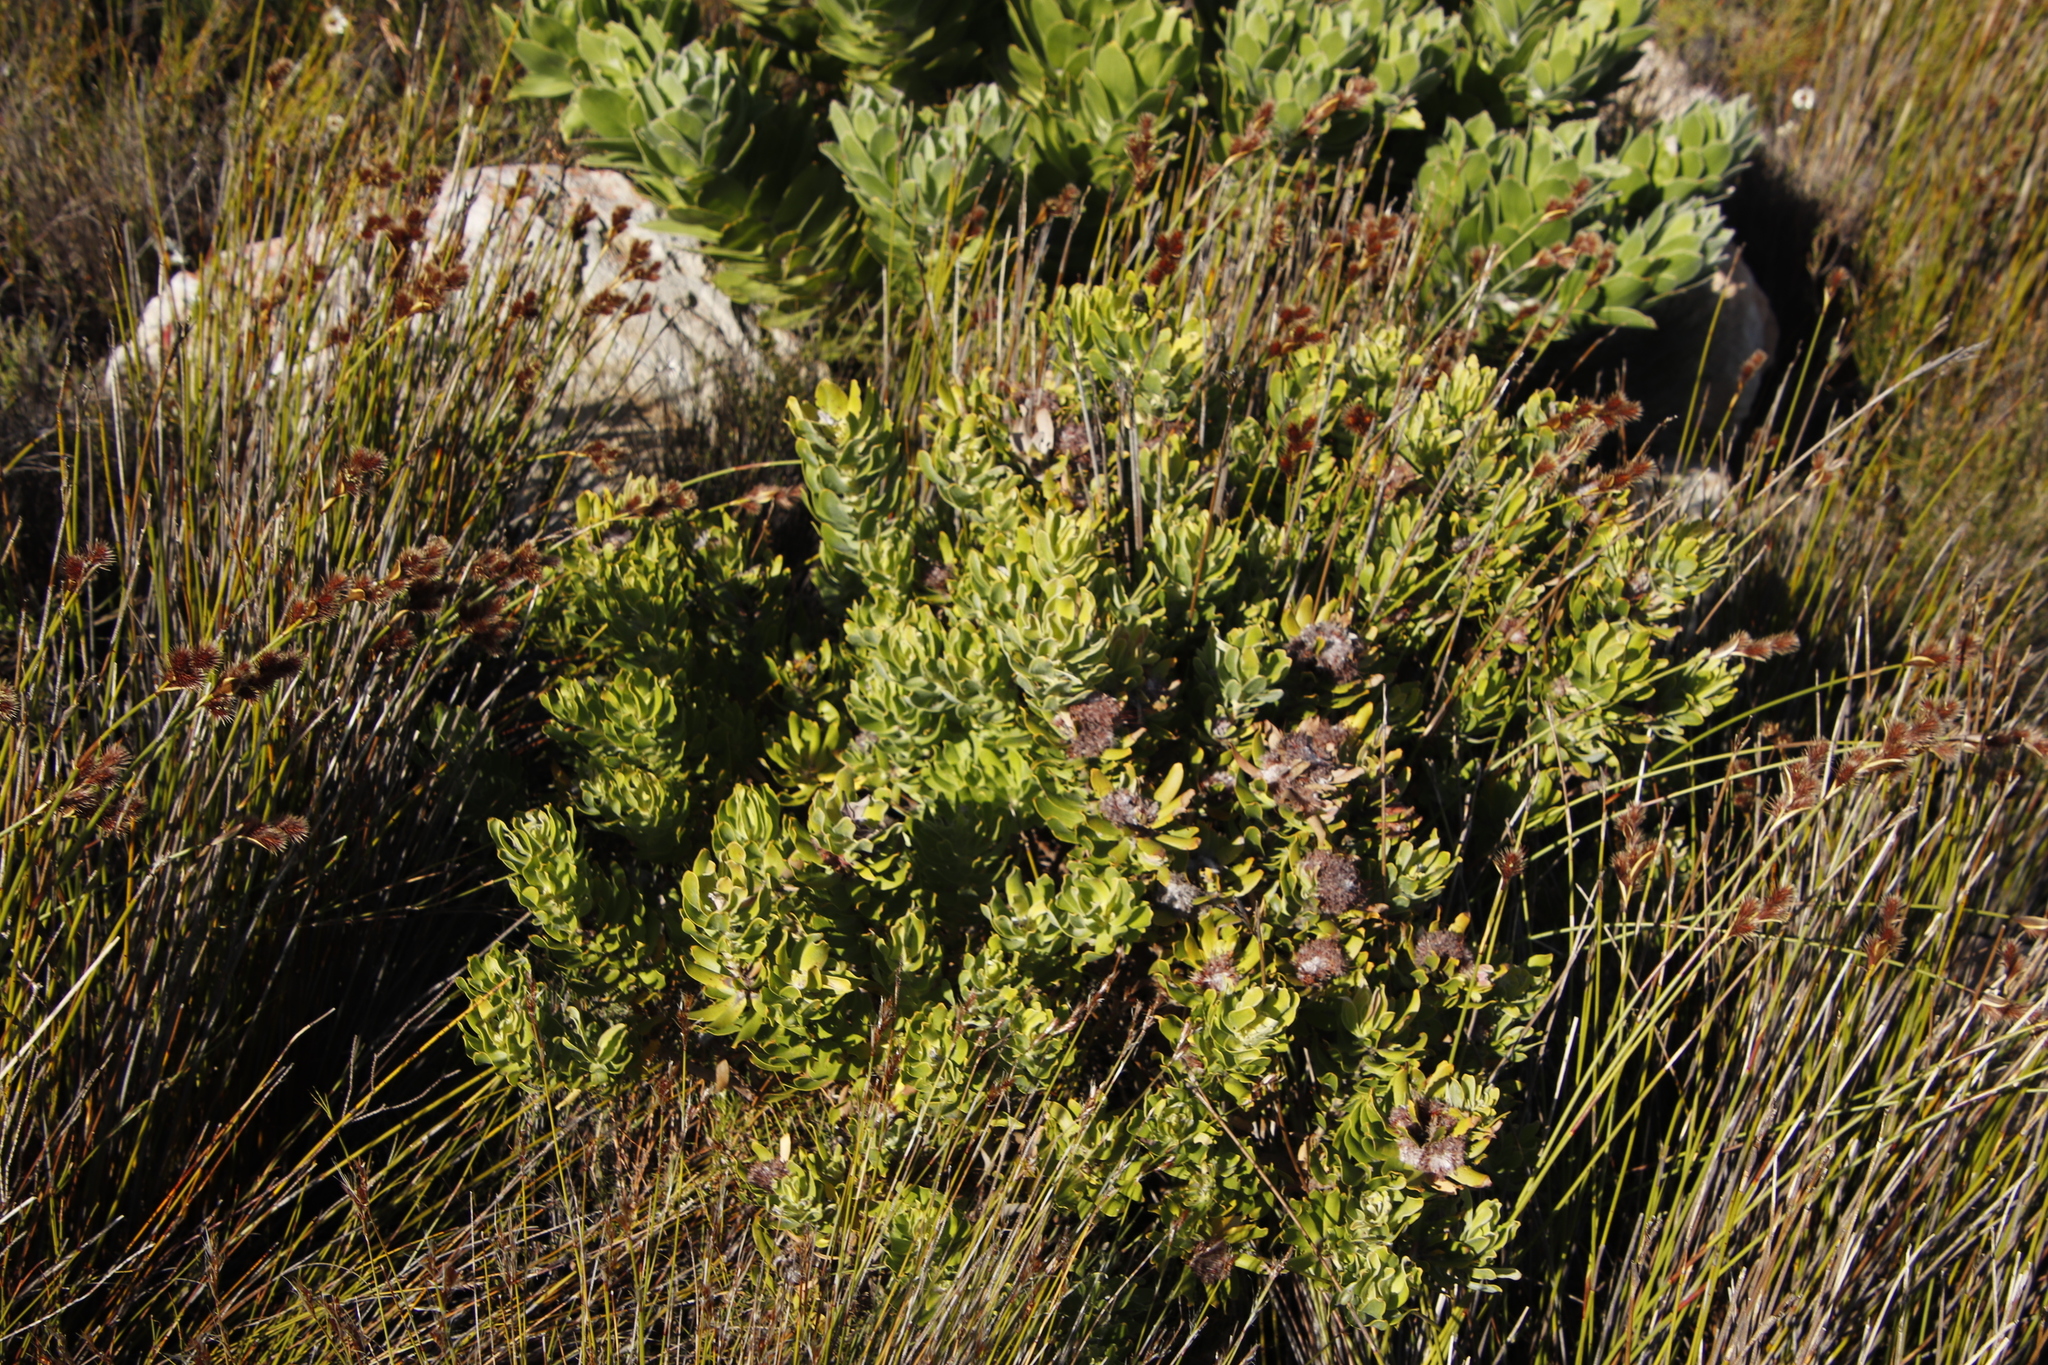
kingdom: Plantae
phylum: Tracheophyta
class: Magnoliopsida
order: Proteales
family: Proteaceae
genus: Leucospermum
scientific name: Leucospermum oleifolium
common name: Matches
